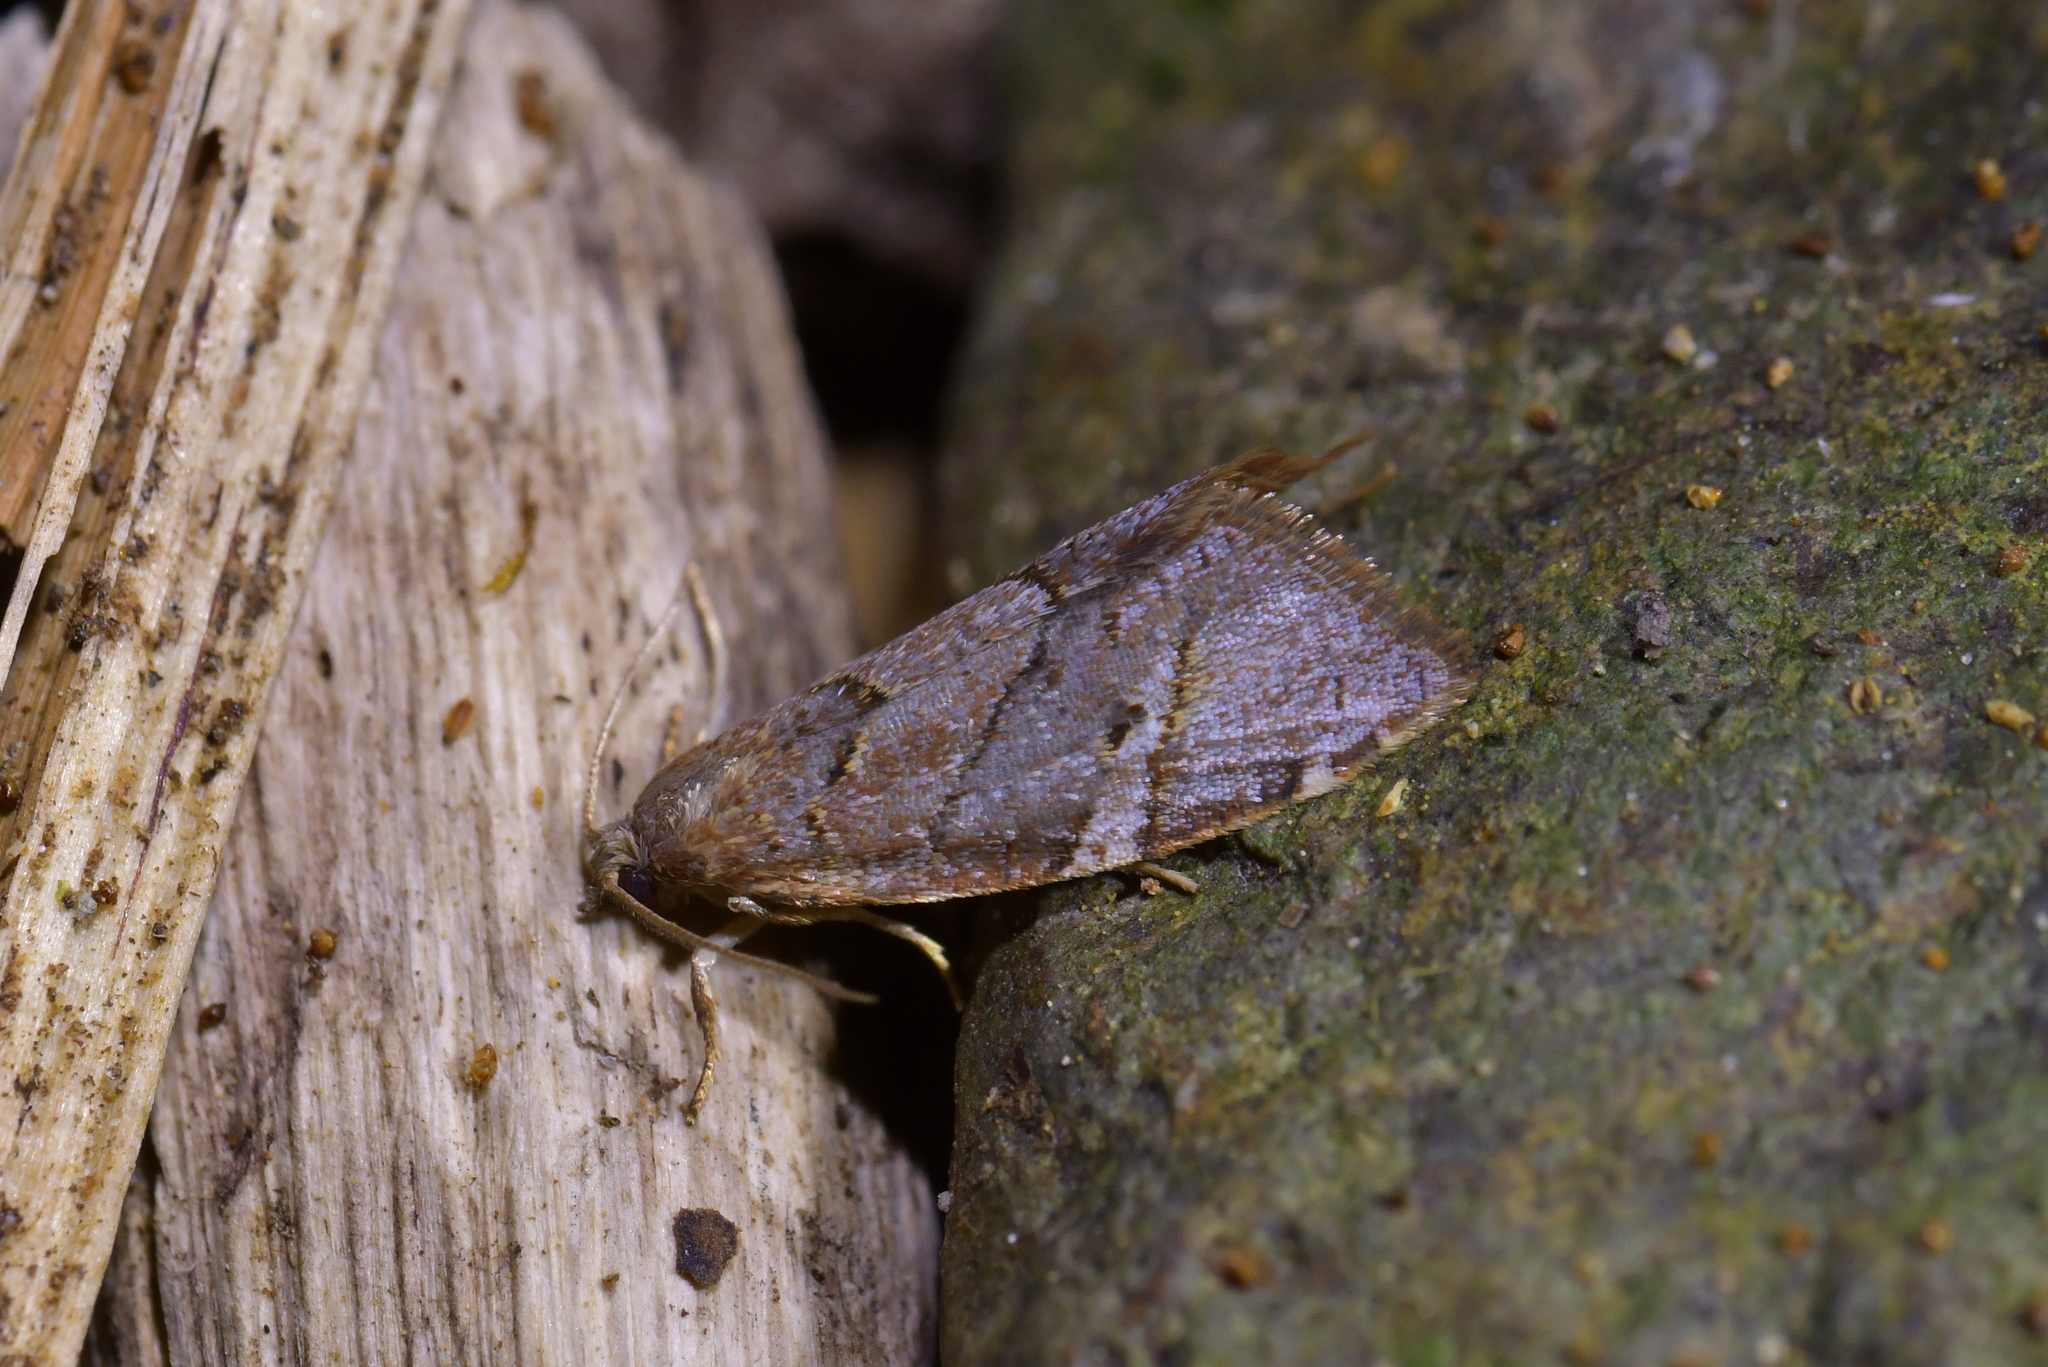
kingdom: Animalia
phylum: Arthropoda
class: Insecta
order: Lepidoptera
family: Tortricidae
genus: Ecclitica
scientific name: Ecclitica torogramma
